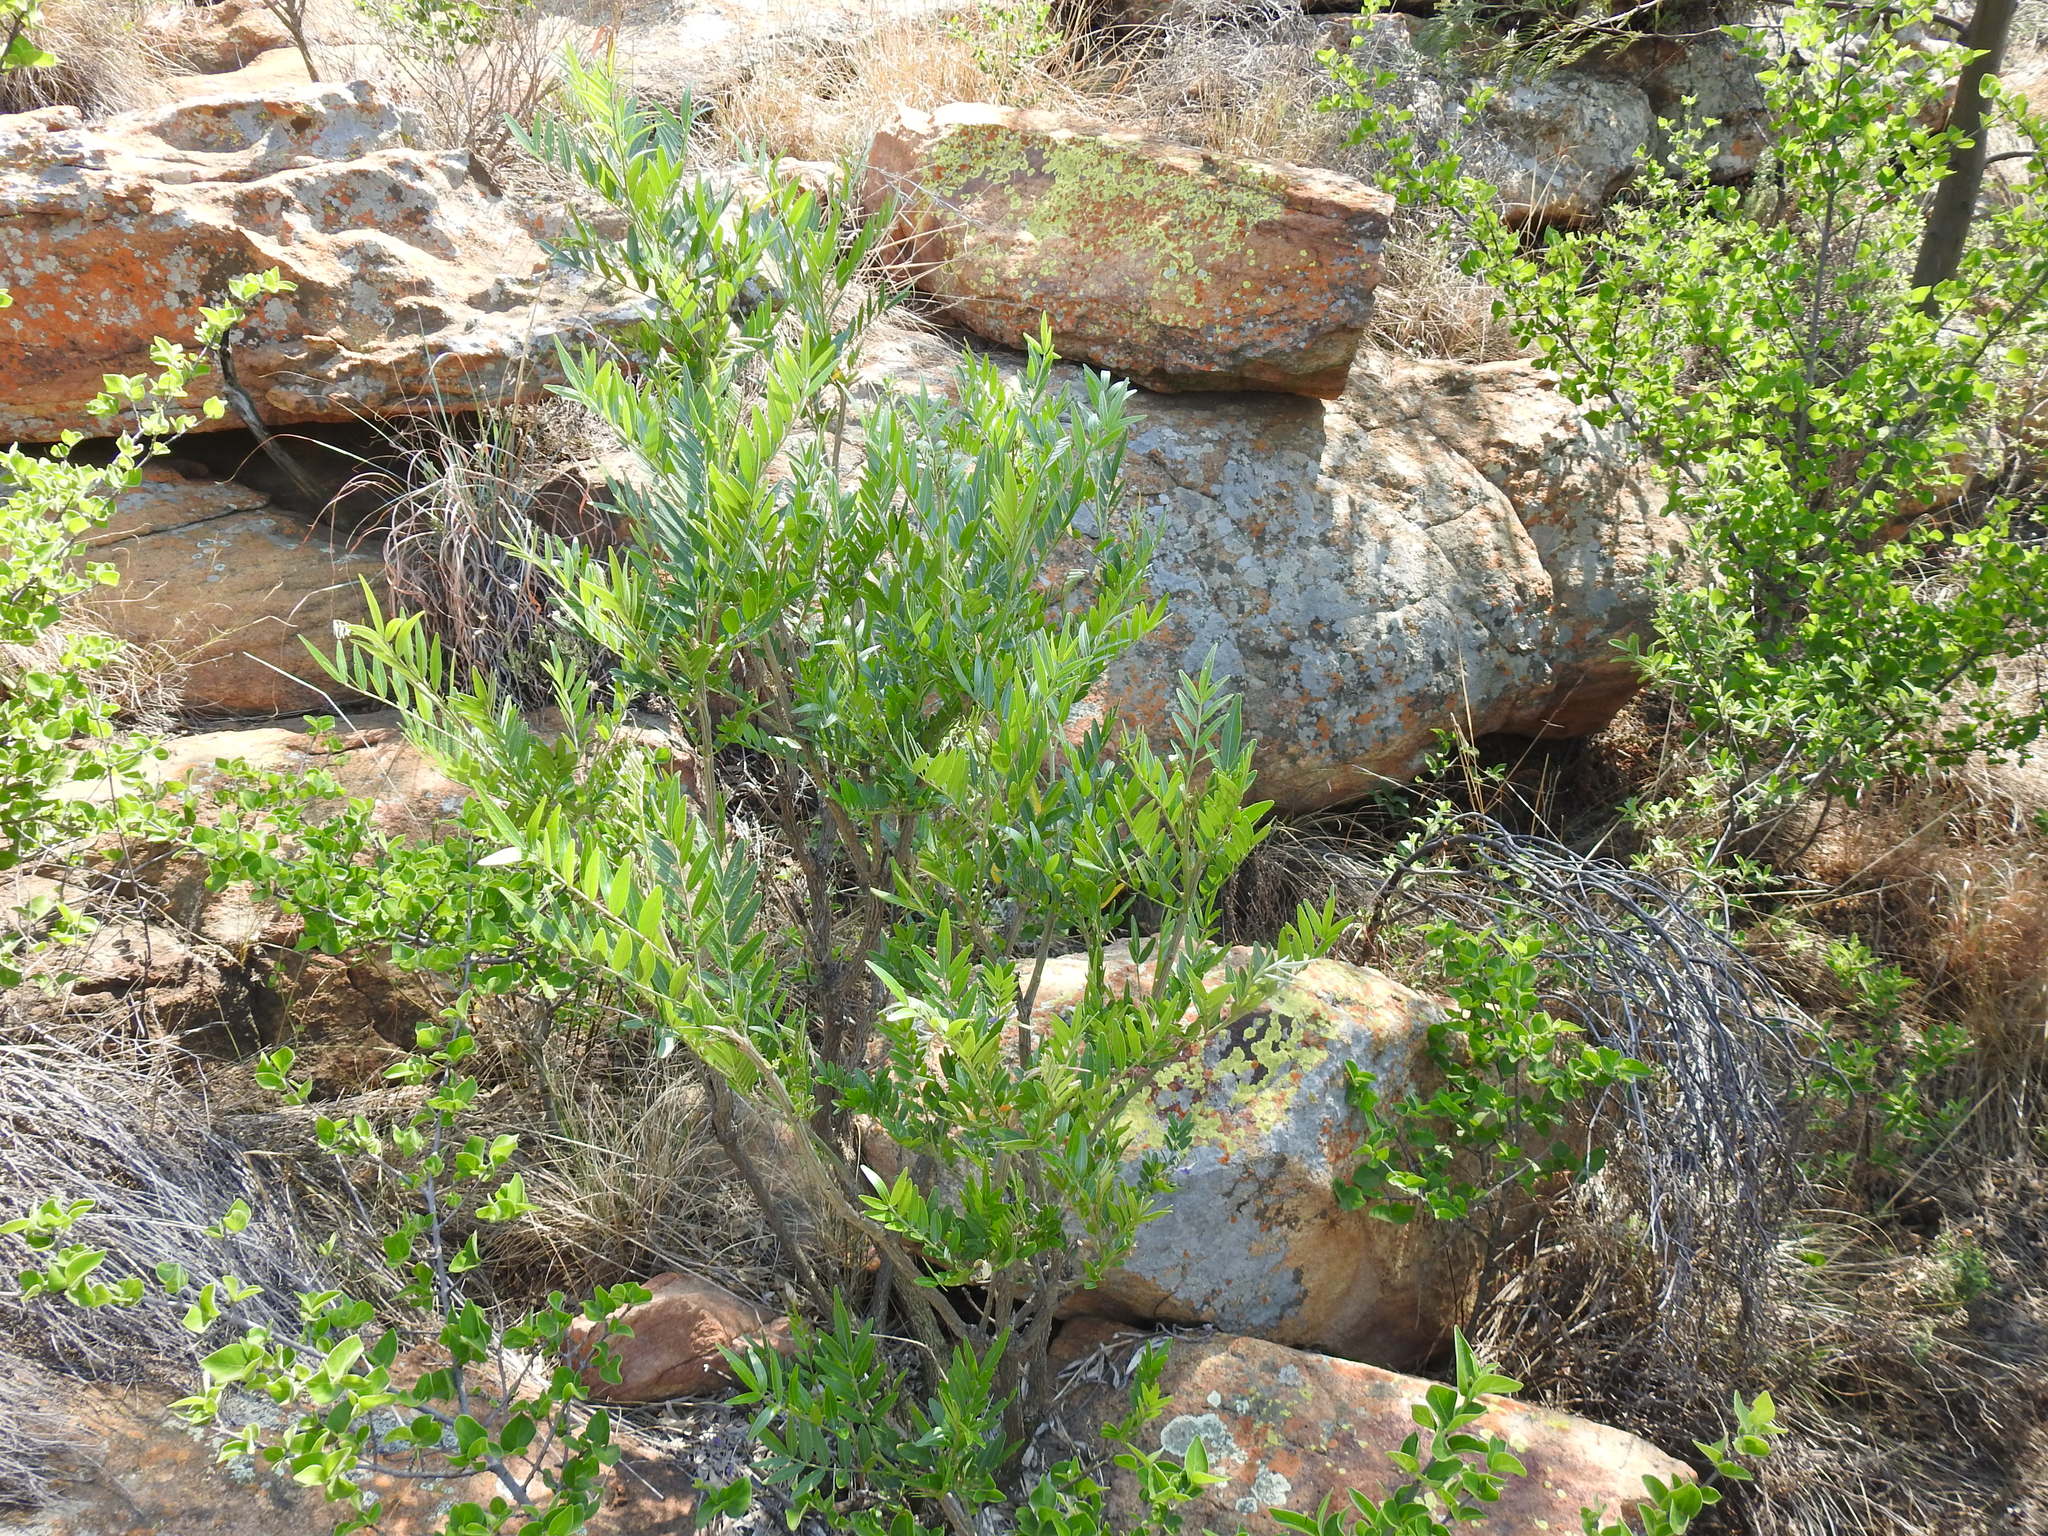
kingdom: Plantae
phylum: Tracheophyta
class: Magnoliopsida
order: Fabales
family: Fabaceae
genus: Mundulea
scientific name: Mundulea sericea
